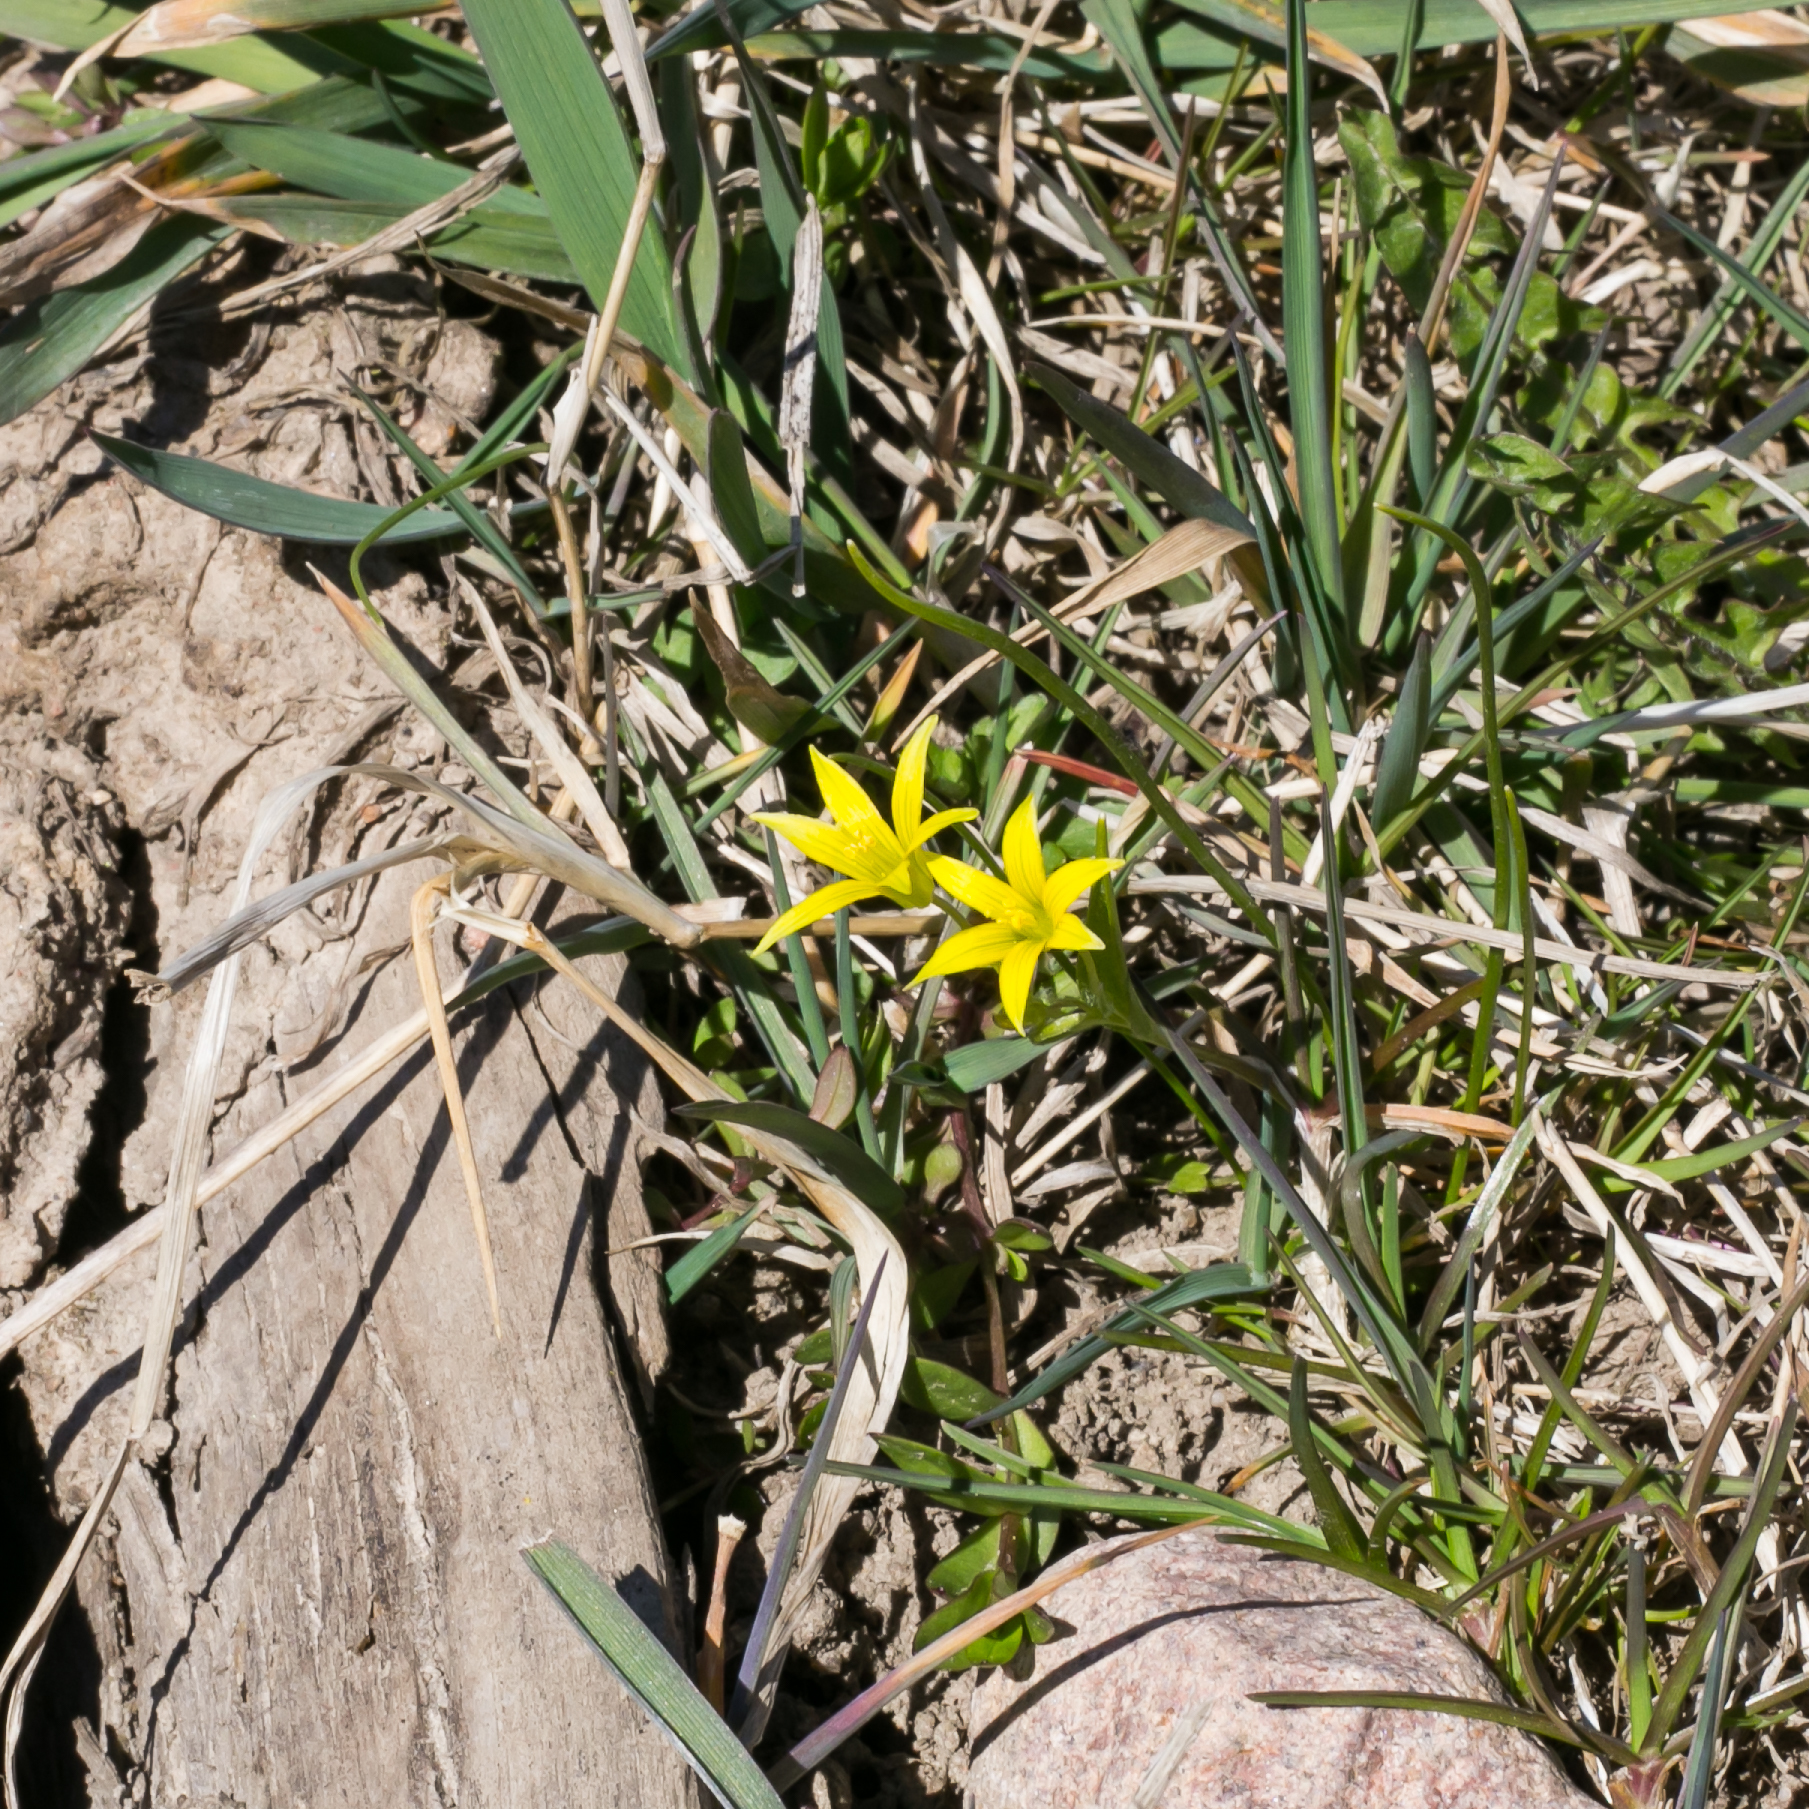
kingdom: Plantae
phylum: Tracheophyta
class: Liliopsida
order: Liliales
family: Liliaceae
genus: Gagea
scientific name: Gagea lutea
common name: Yellow star-of-bethlehem
